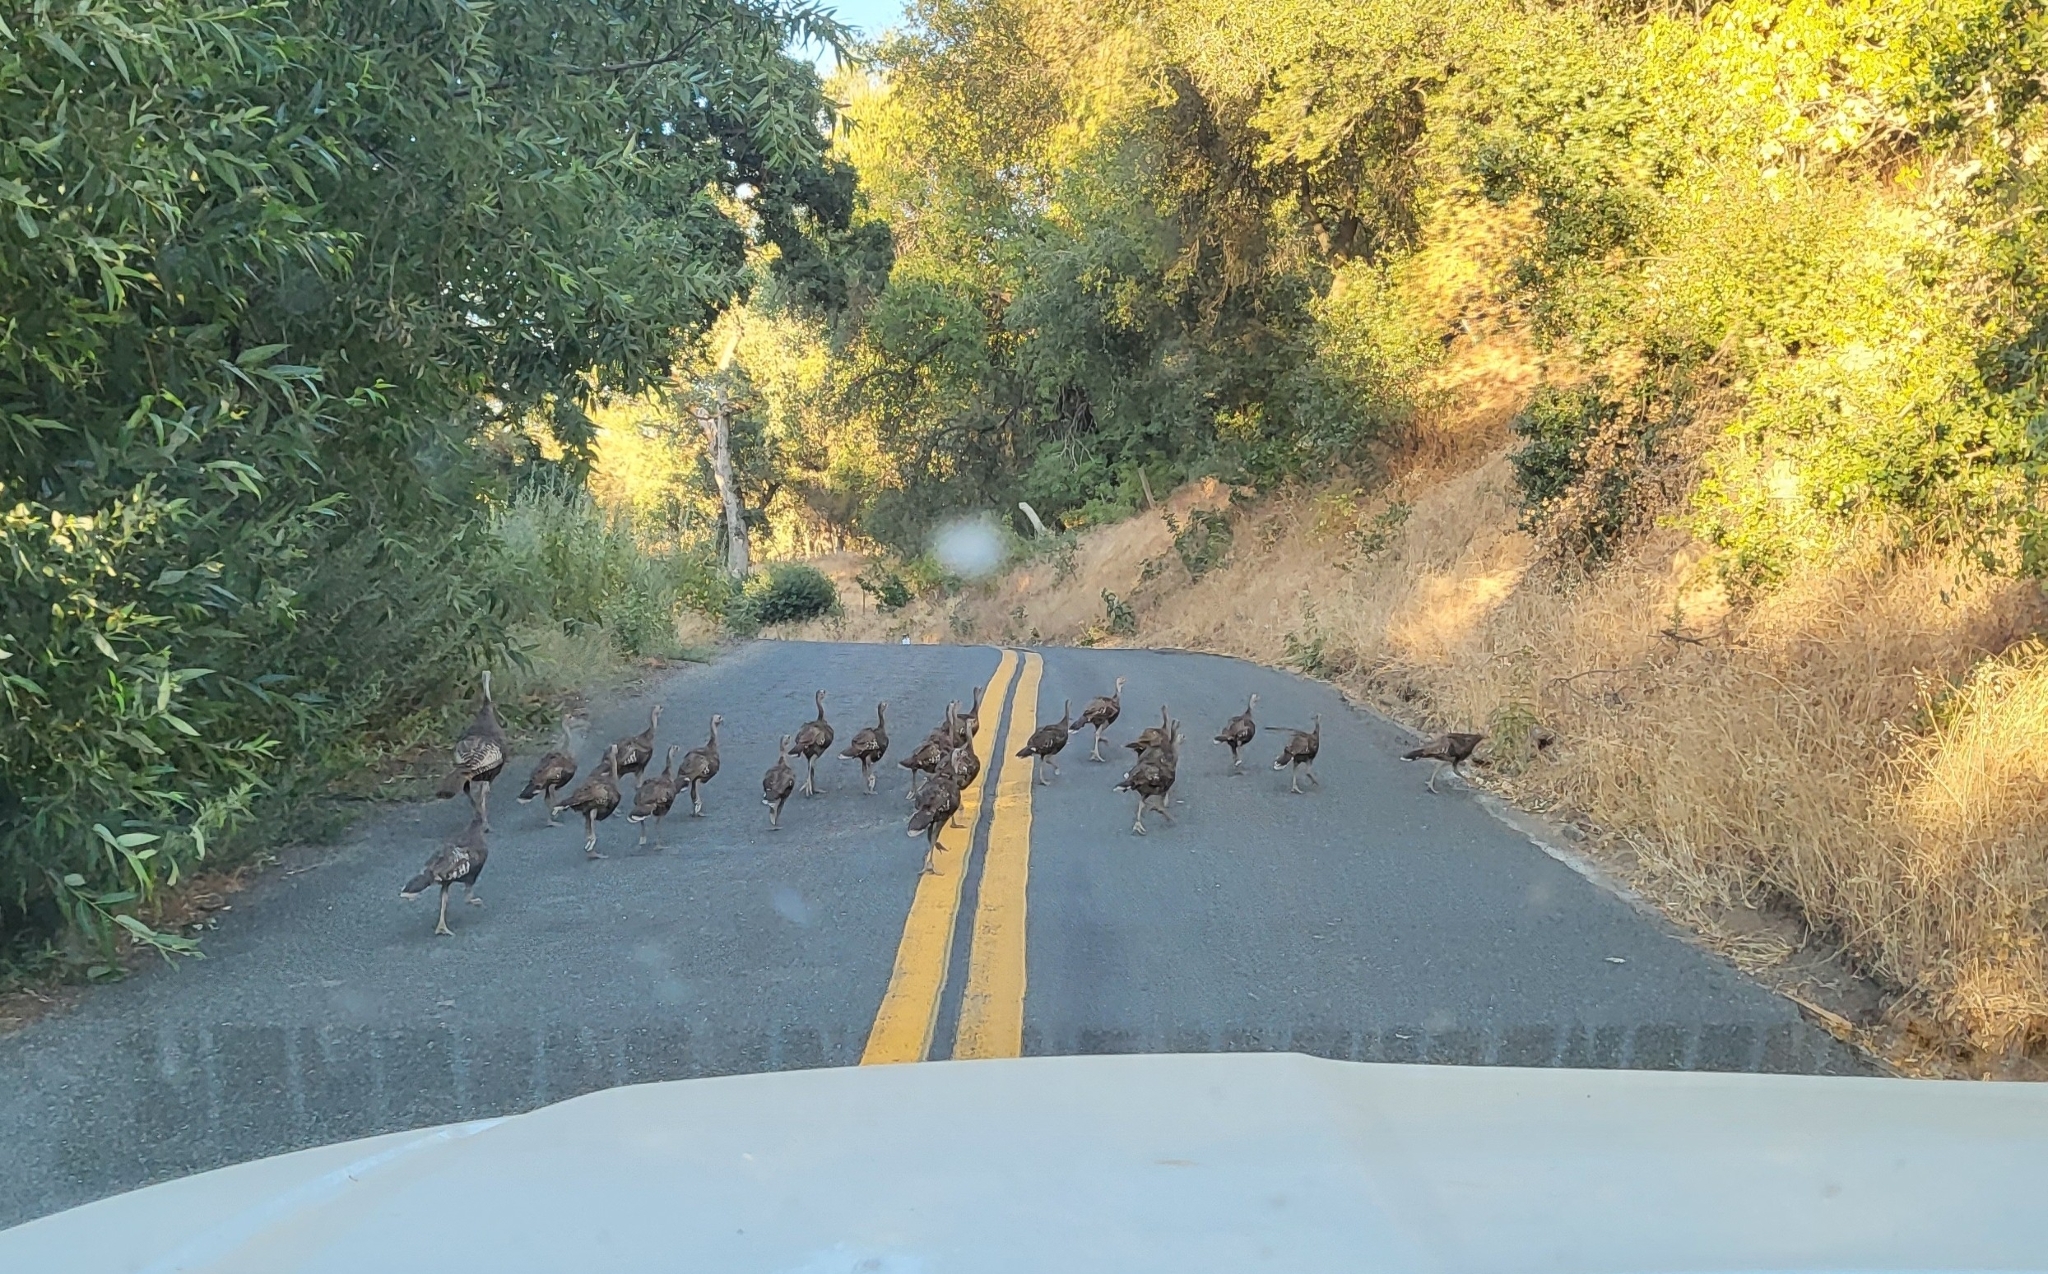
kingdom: Animalia
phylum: Chordata
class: Aves
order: Galliformes
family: Phasianidae
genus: Meleagris
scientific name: Meleagris gallopavo
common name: Wild turkey
